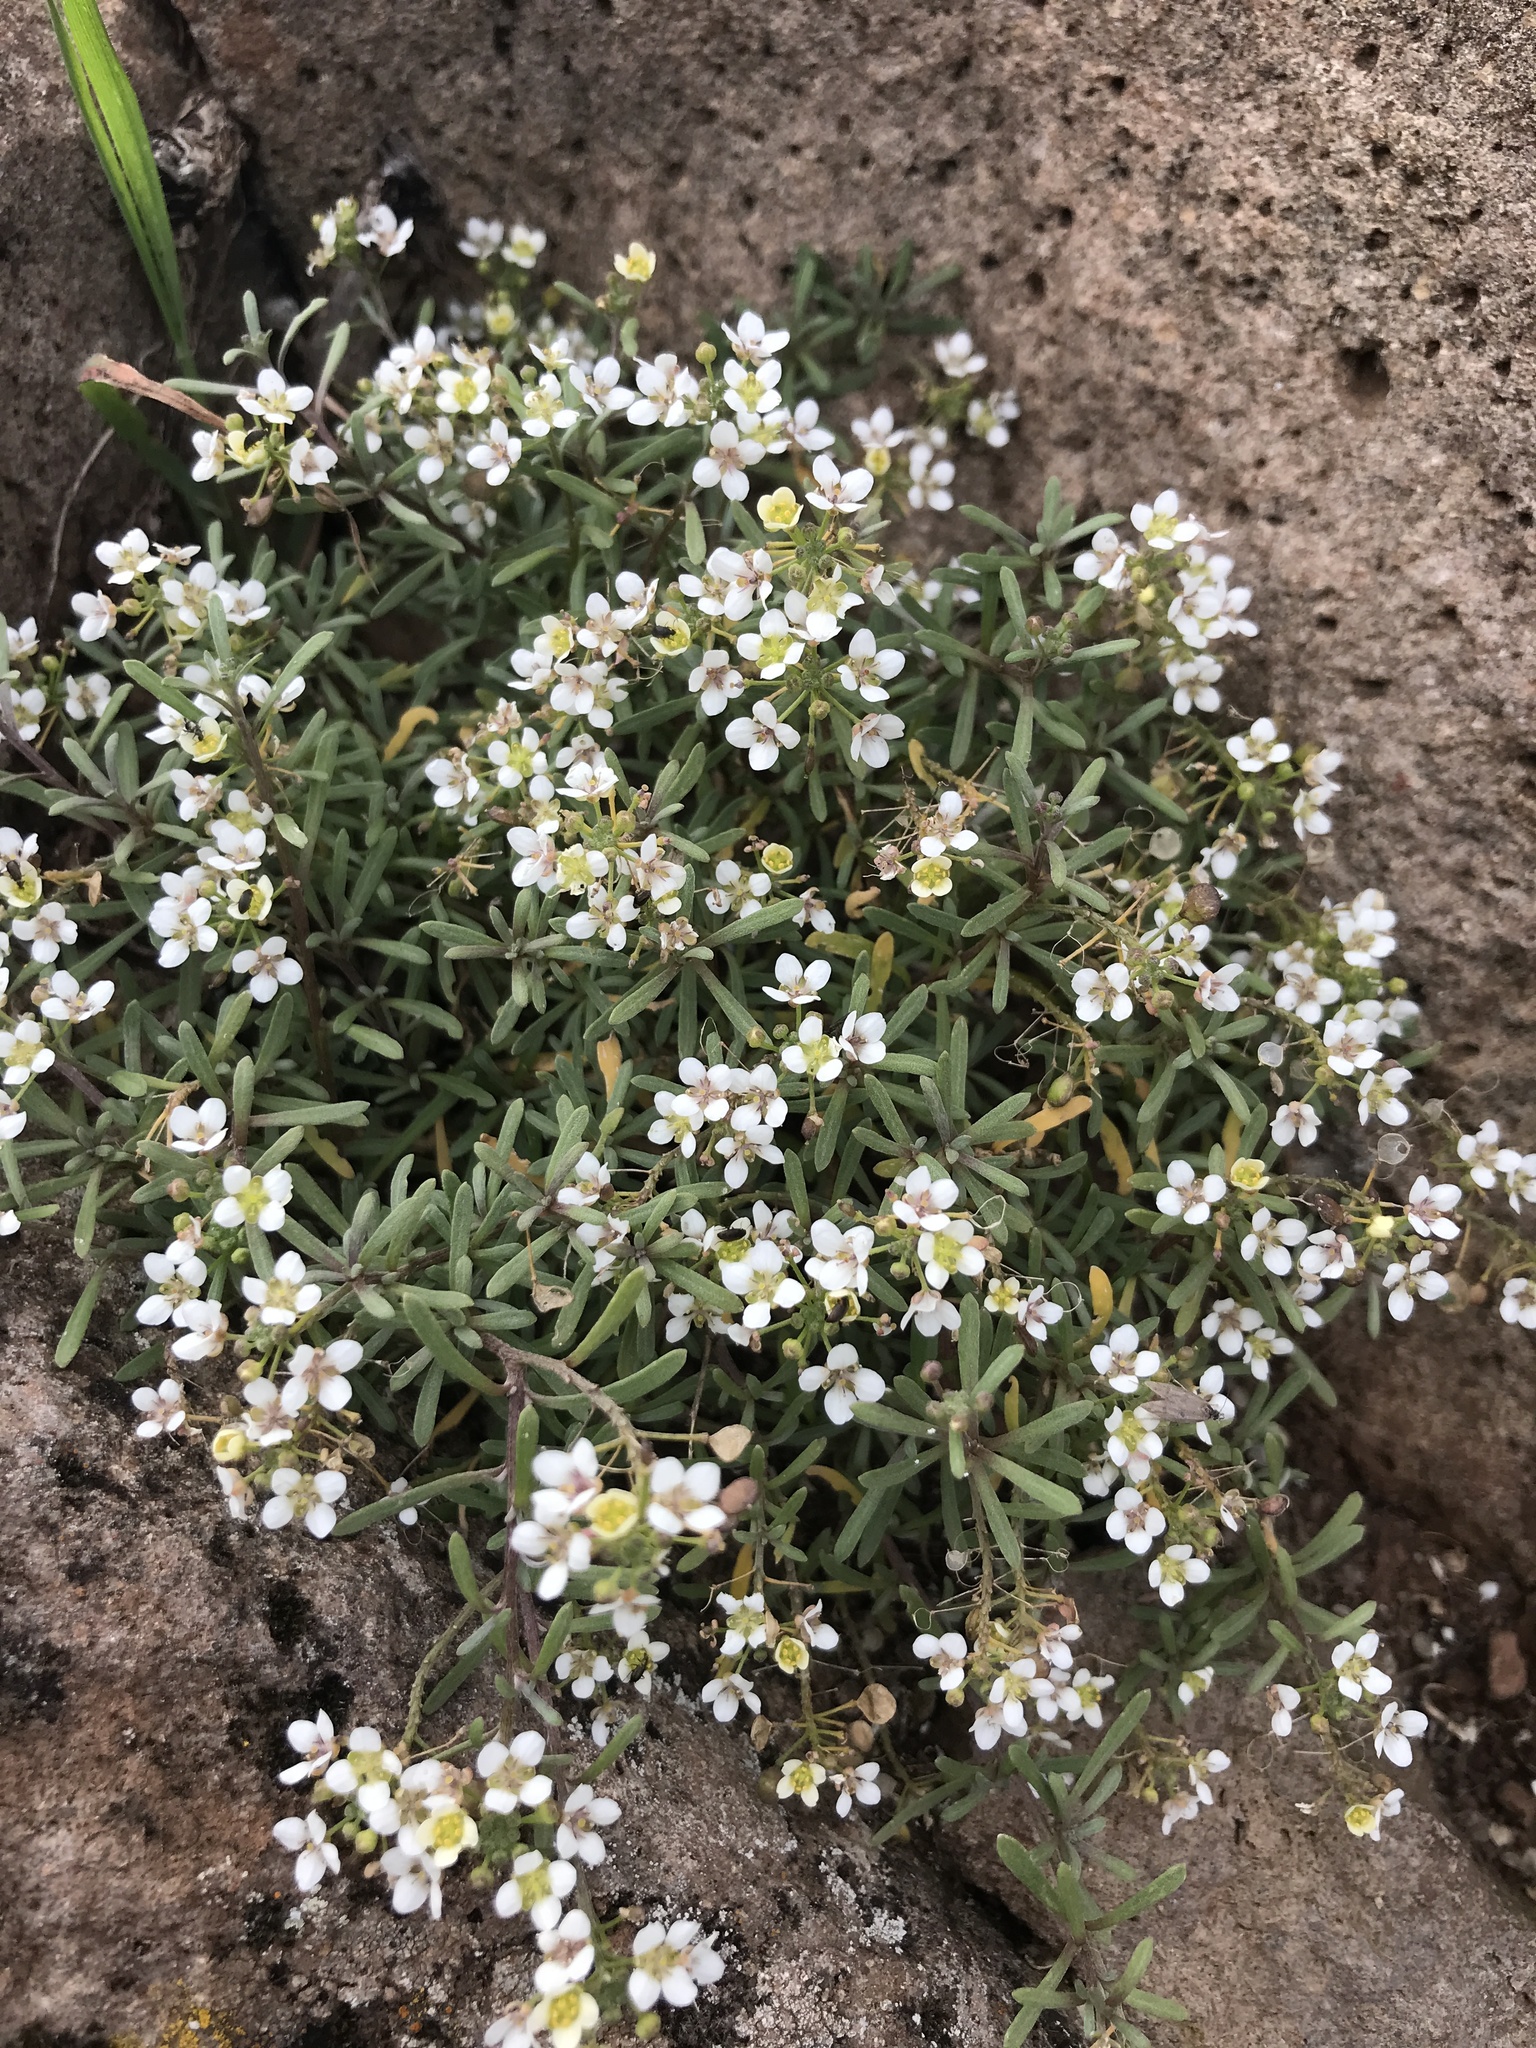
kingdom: Plantae
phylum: Tracheophyta
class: Magnoliopsida
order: Brassicales
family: Brassicaceae
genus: Lobularia
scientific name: Lobularia canariensis
